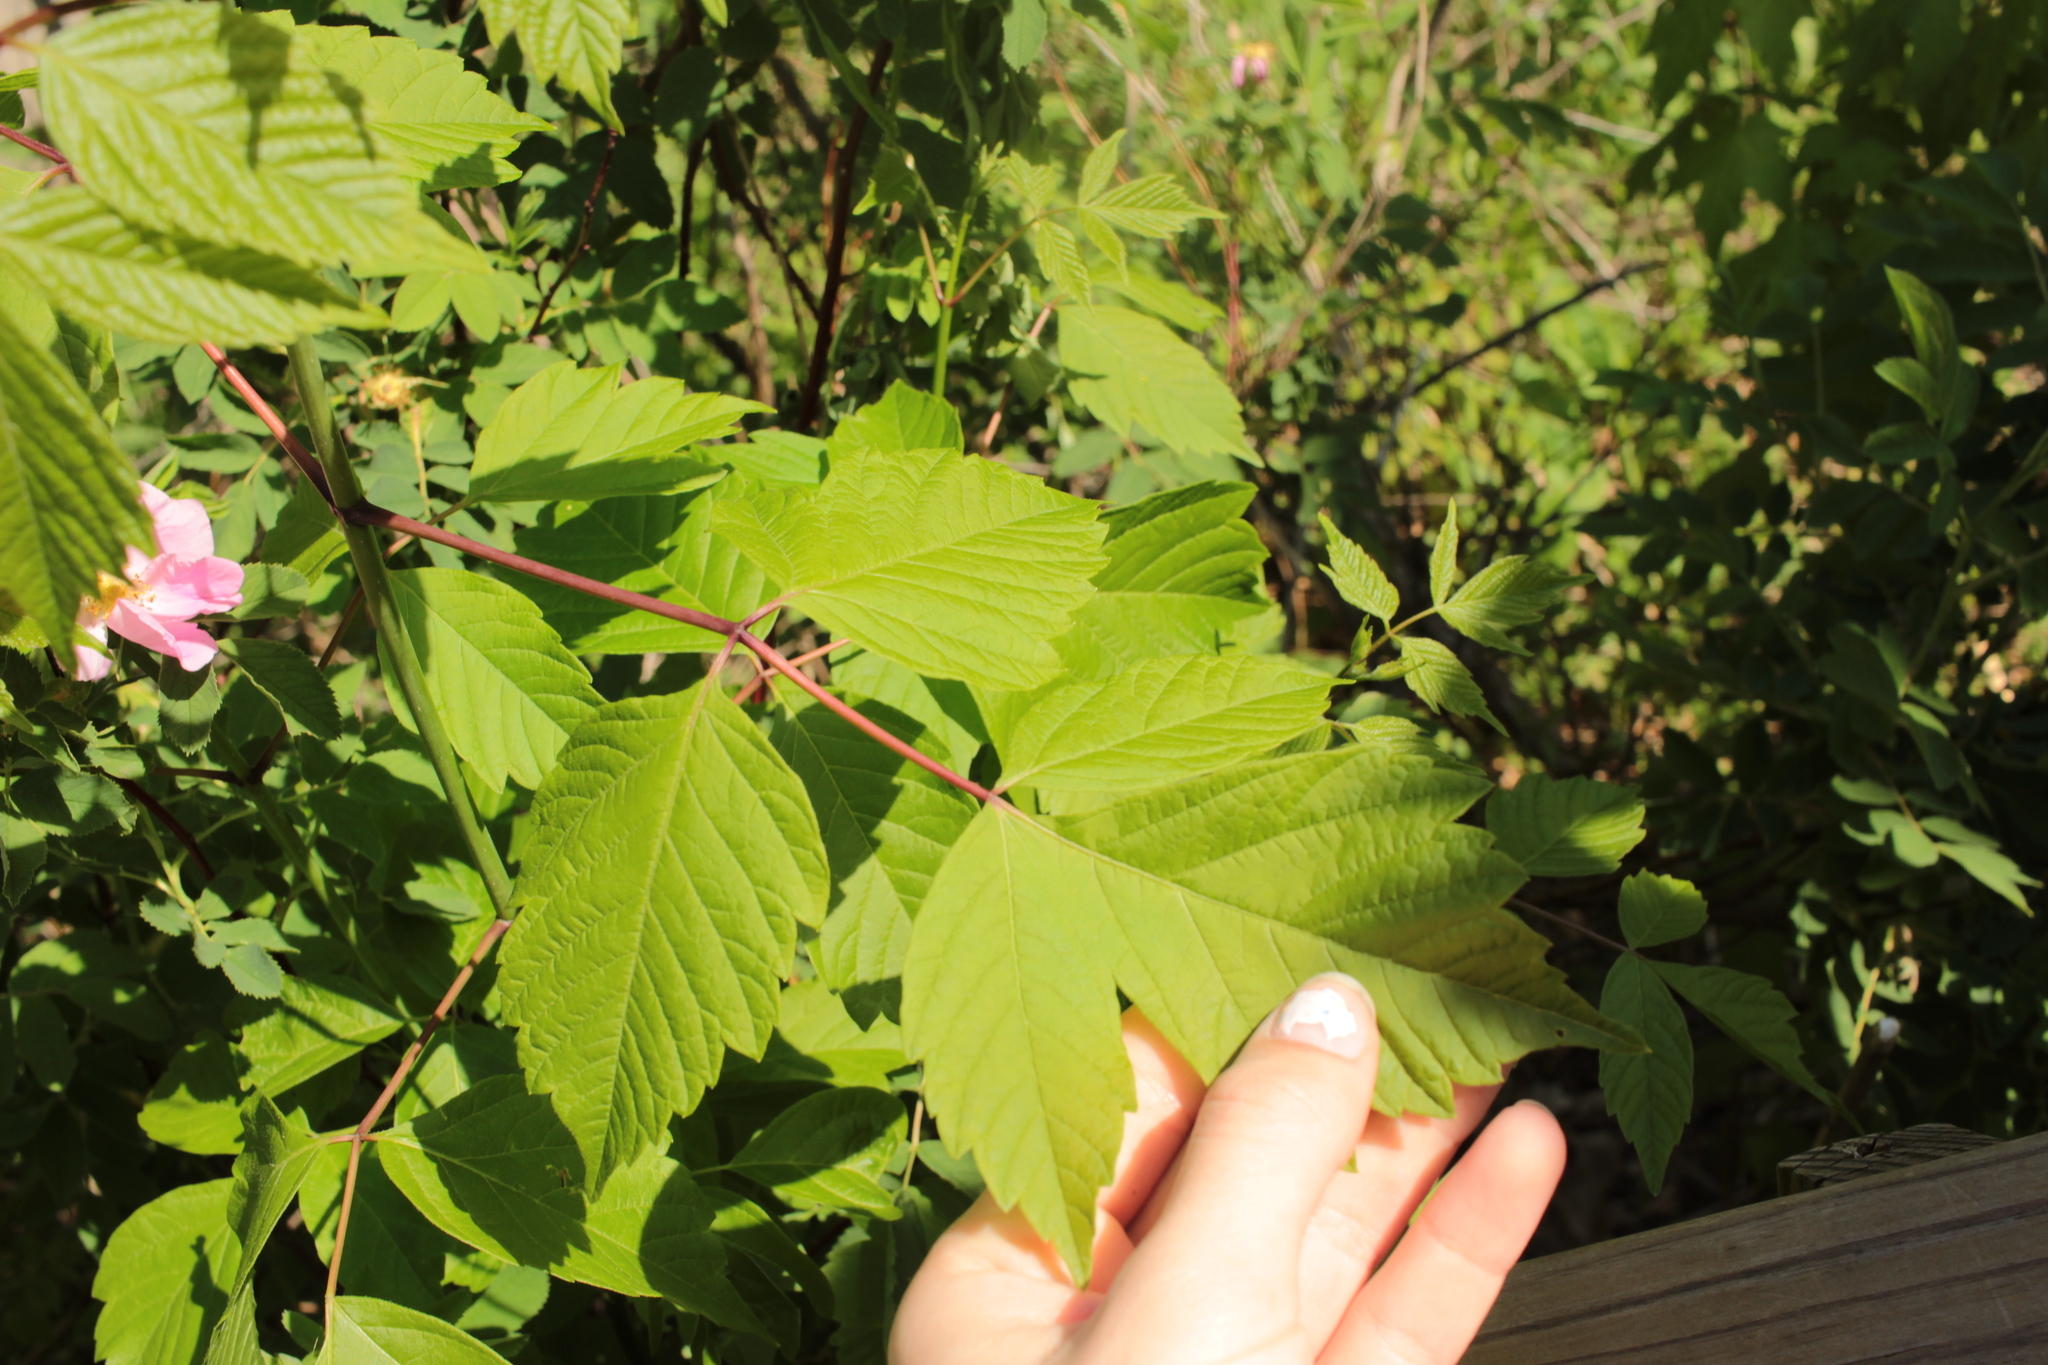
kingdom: Plantae
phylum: Tracheophyta
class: Magnoliopsida
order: Sapindales
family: Sapindaceae
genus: Acer
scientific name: Acer negundo
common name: Ashleaf maple
